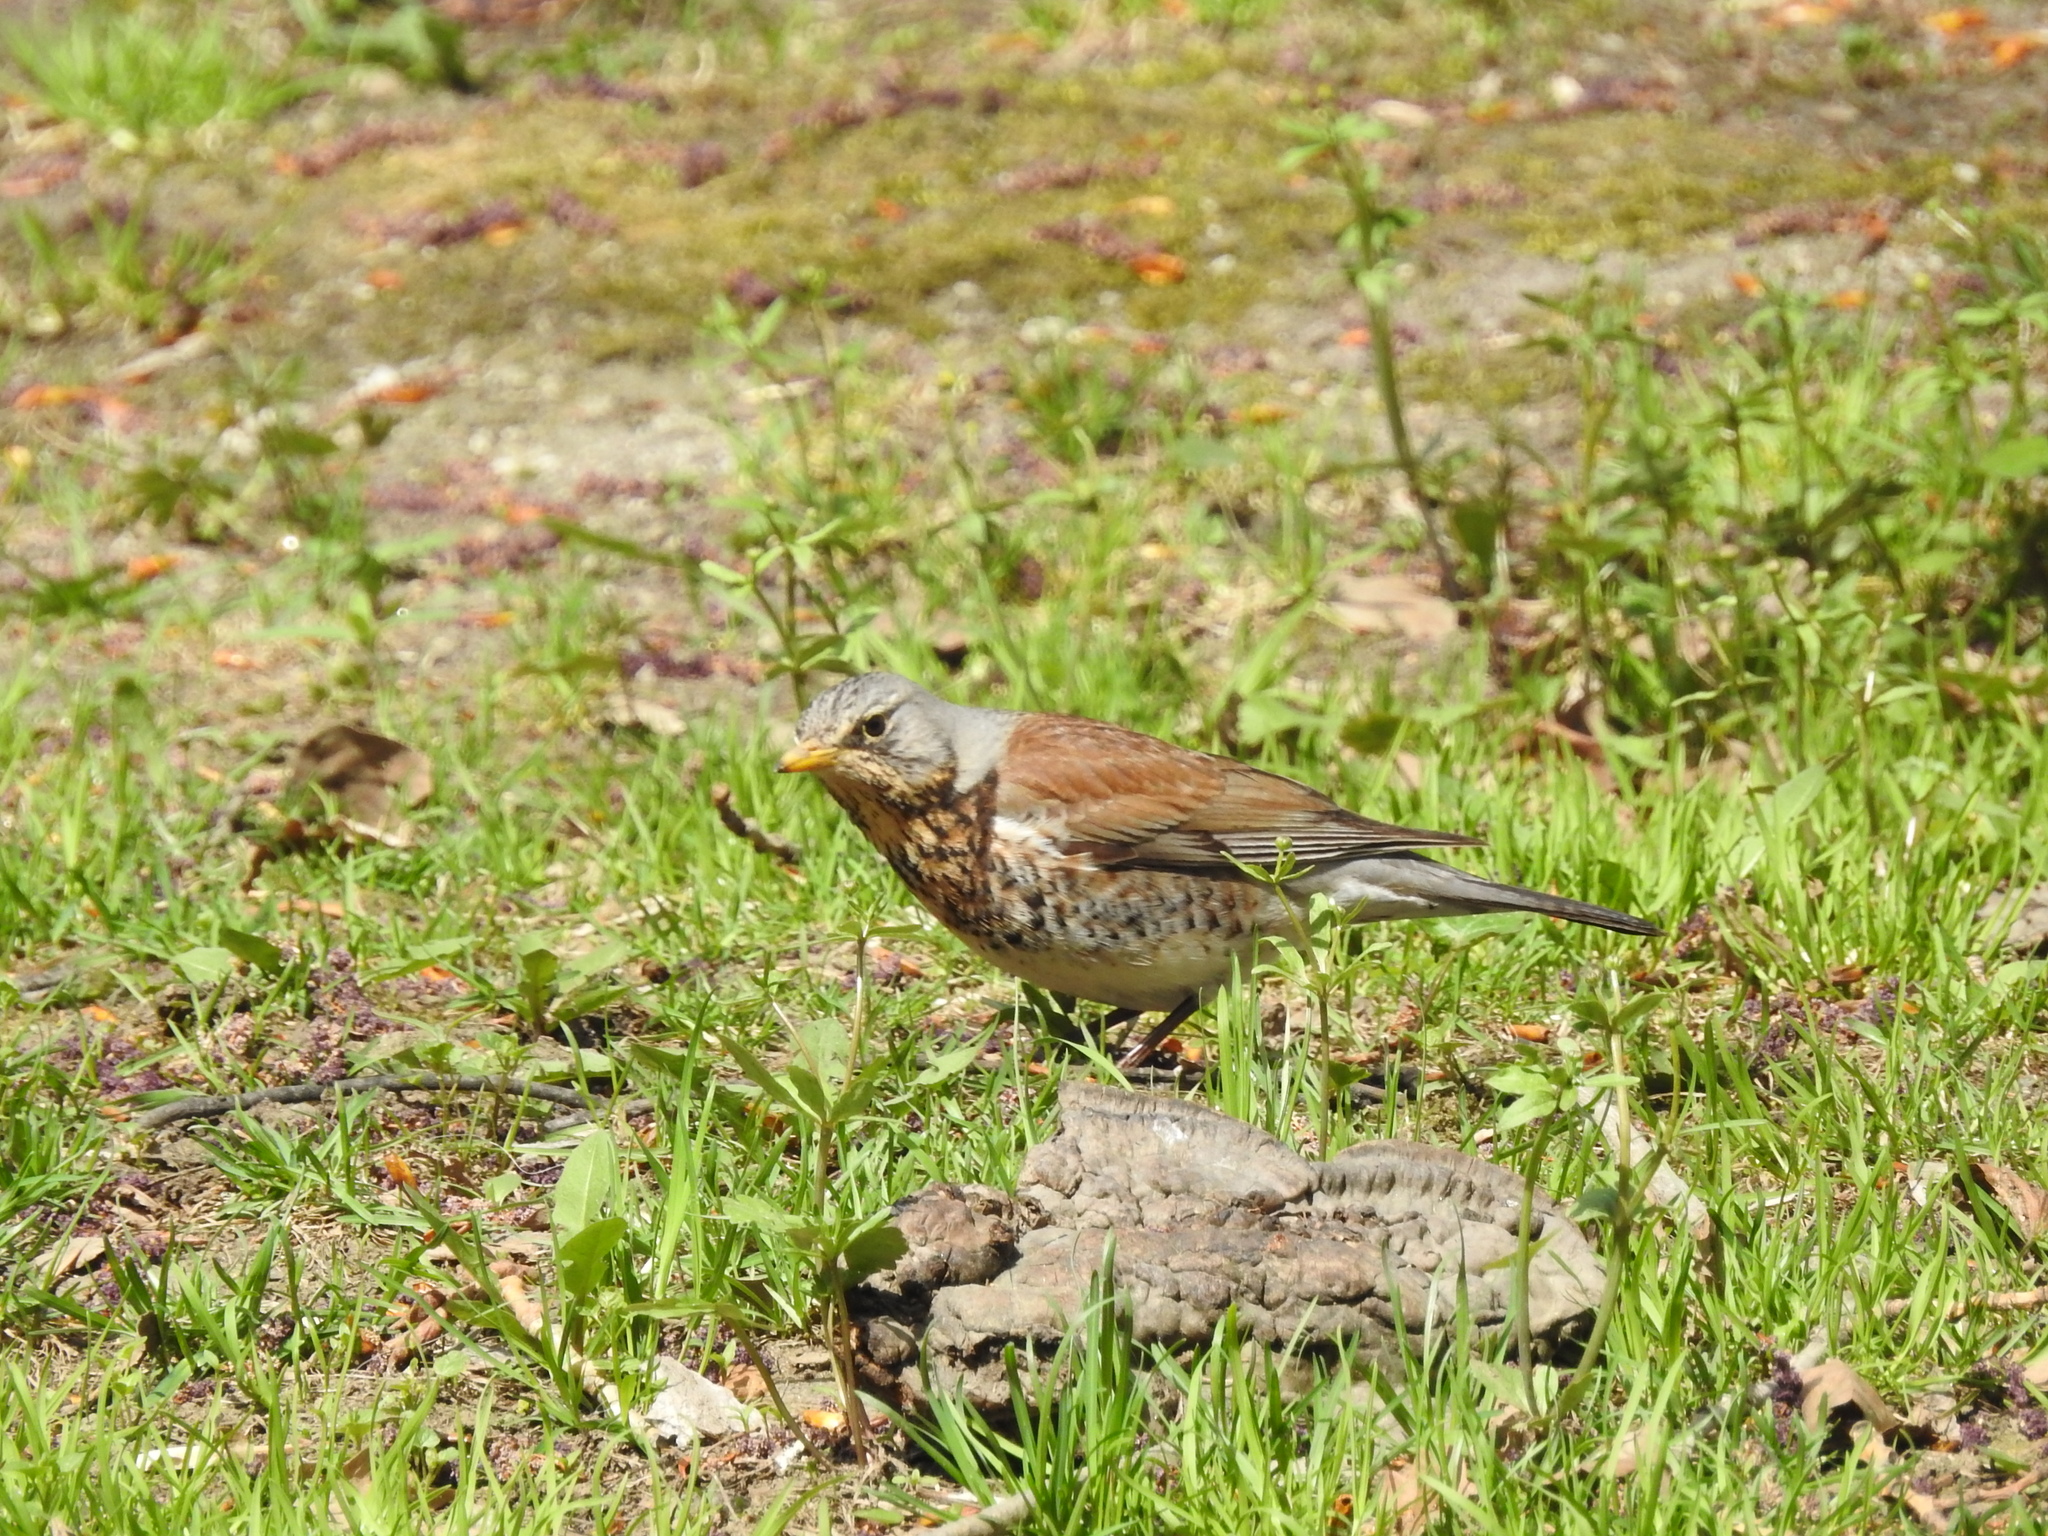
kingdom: Animalia
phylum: Chordata
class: Aves
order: Passeriformes
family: Turdidae
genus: Turdus
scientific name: Turdus pilaris
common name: Fieldfare
